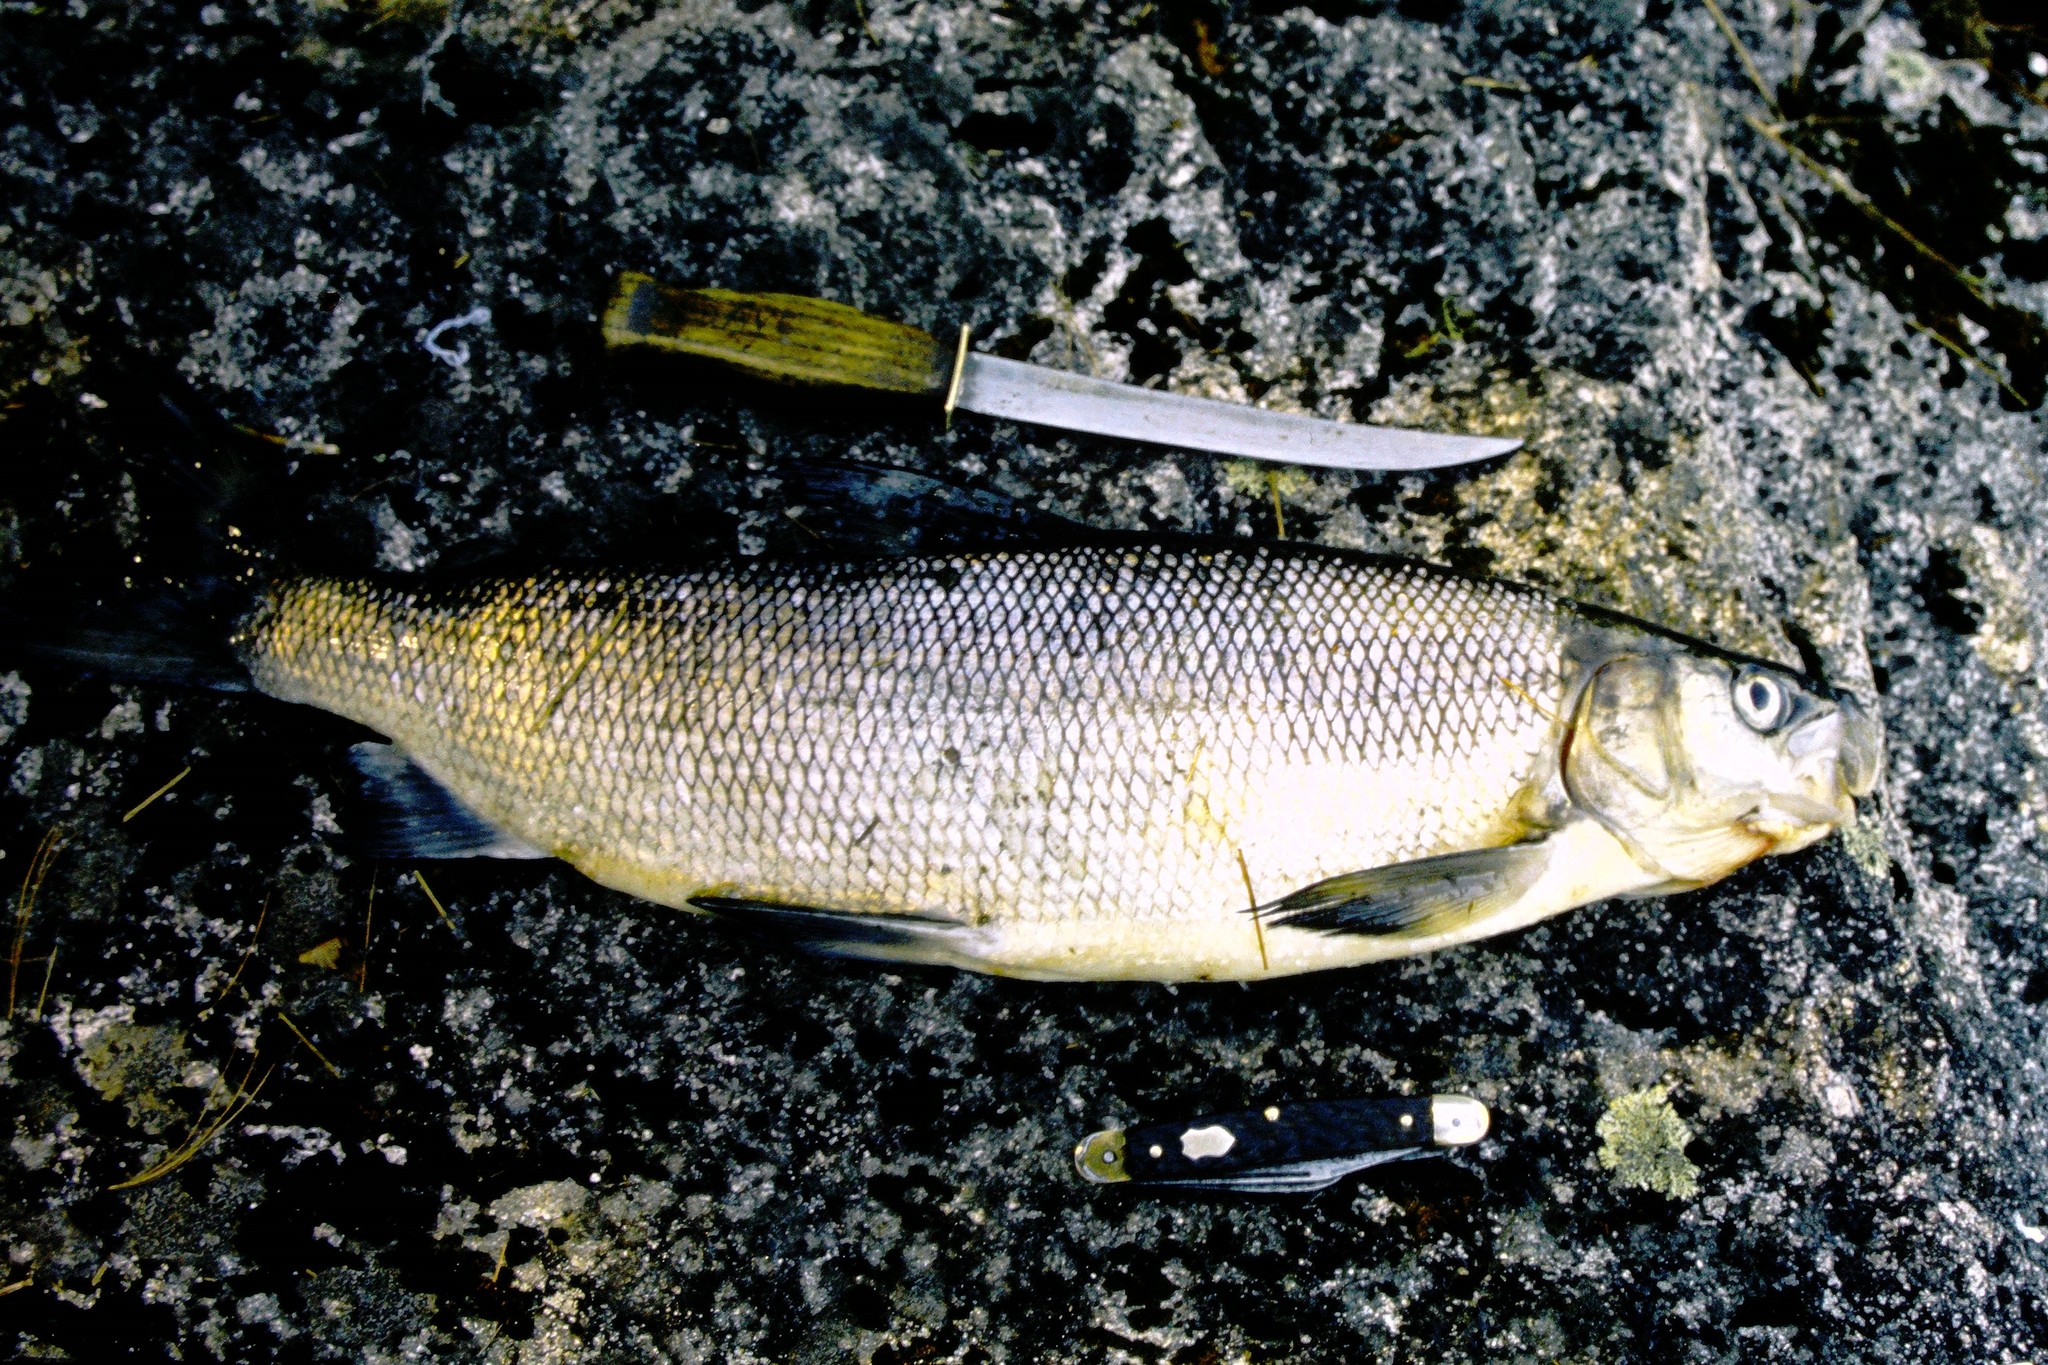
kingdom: Animalia
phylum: Chordata
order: Salmoniformes
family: Salmonidae
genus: Coregonus
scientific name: Coregonus clupeaformis
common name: Lake whitefish
